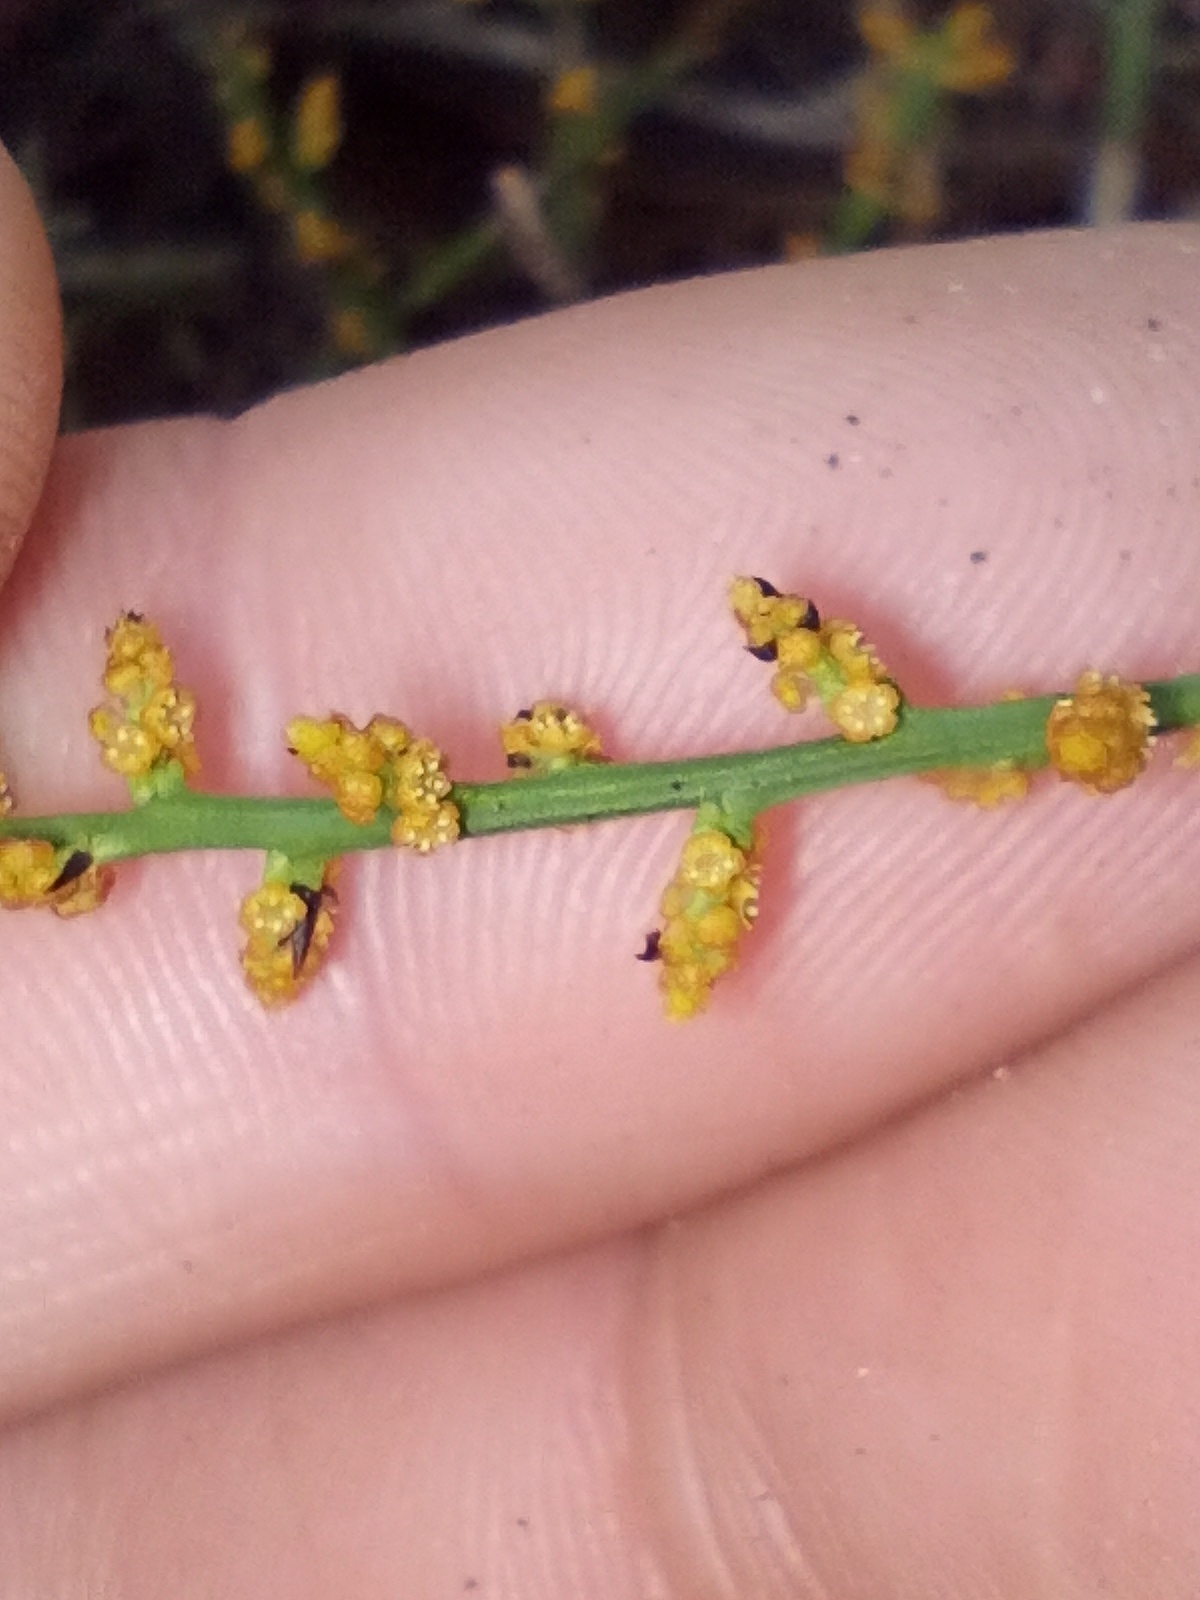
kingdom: Plantae
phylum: Tracheophyta
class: Magnoliopsida
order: Santalales
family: Amphorogynaceae
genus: Leptomeria
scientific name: Leptomeria scrobiculata
